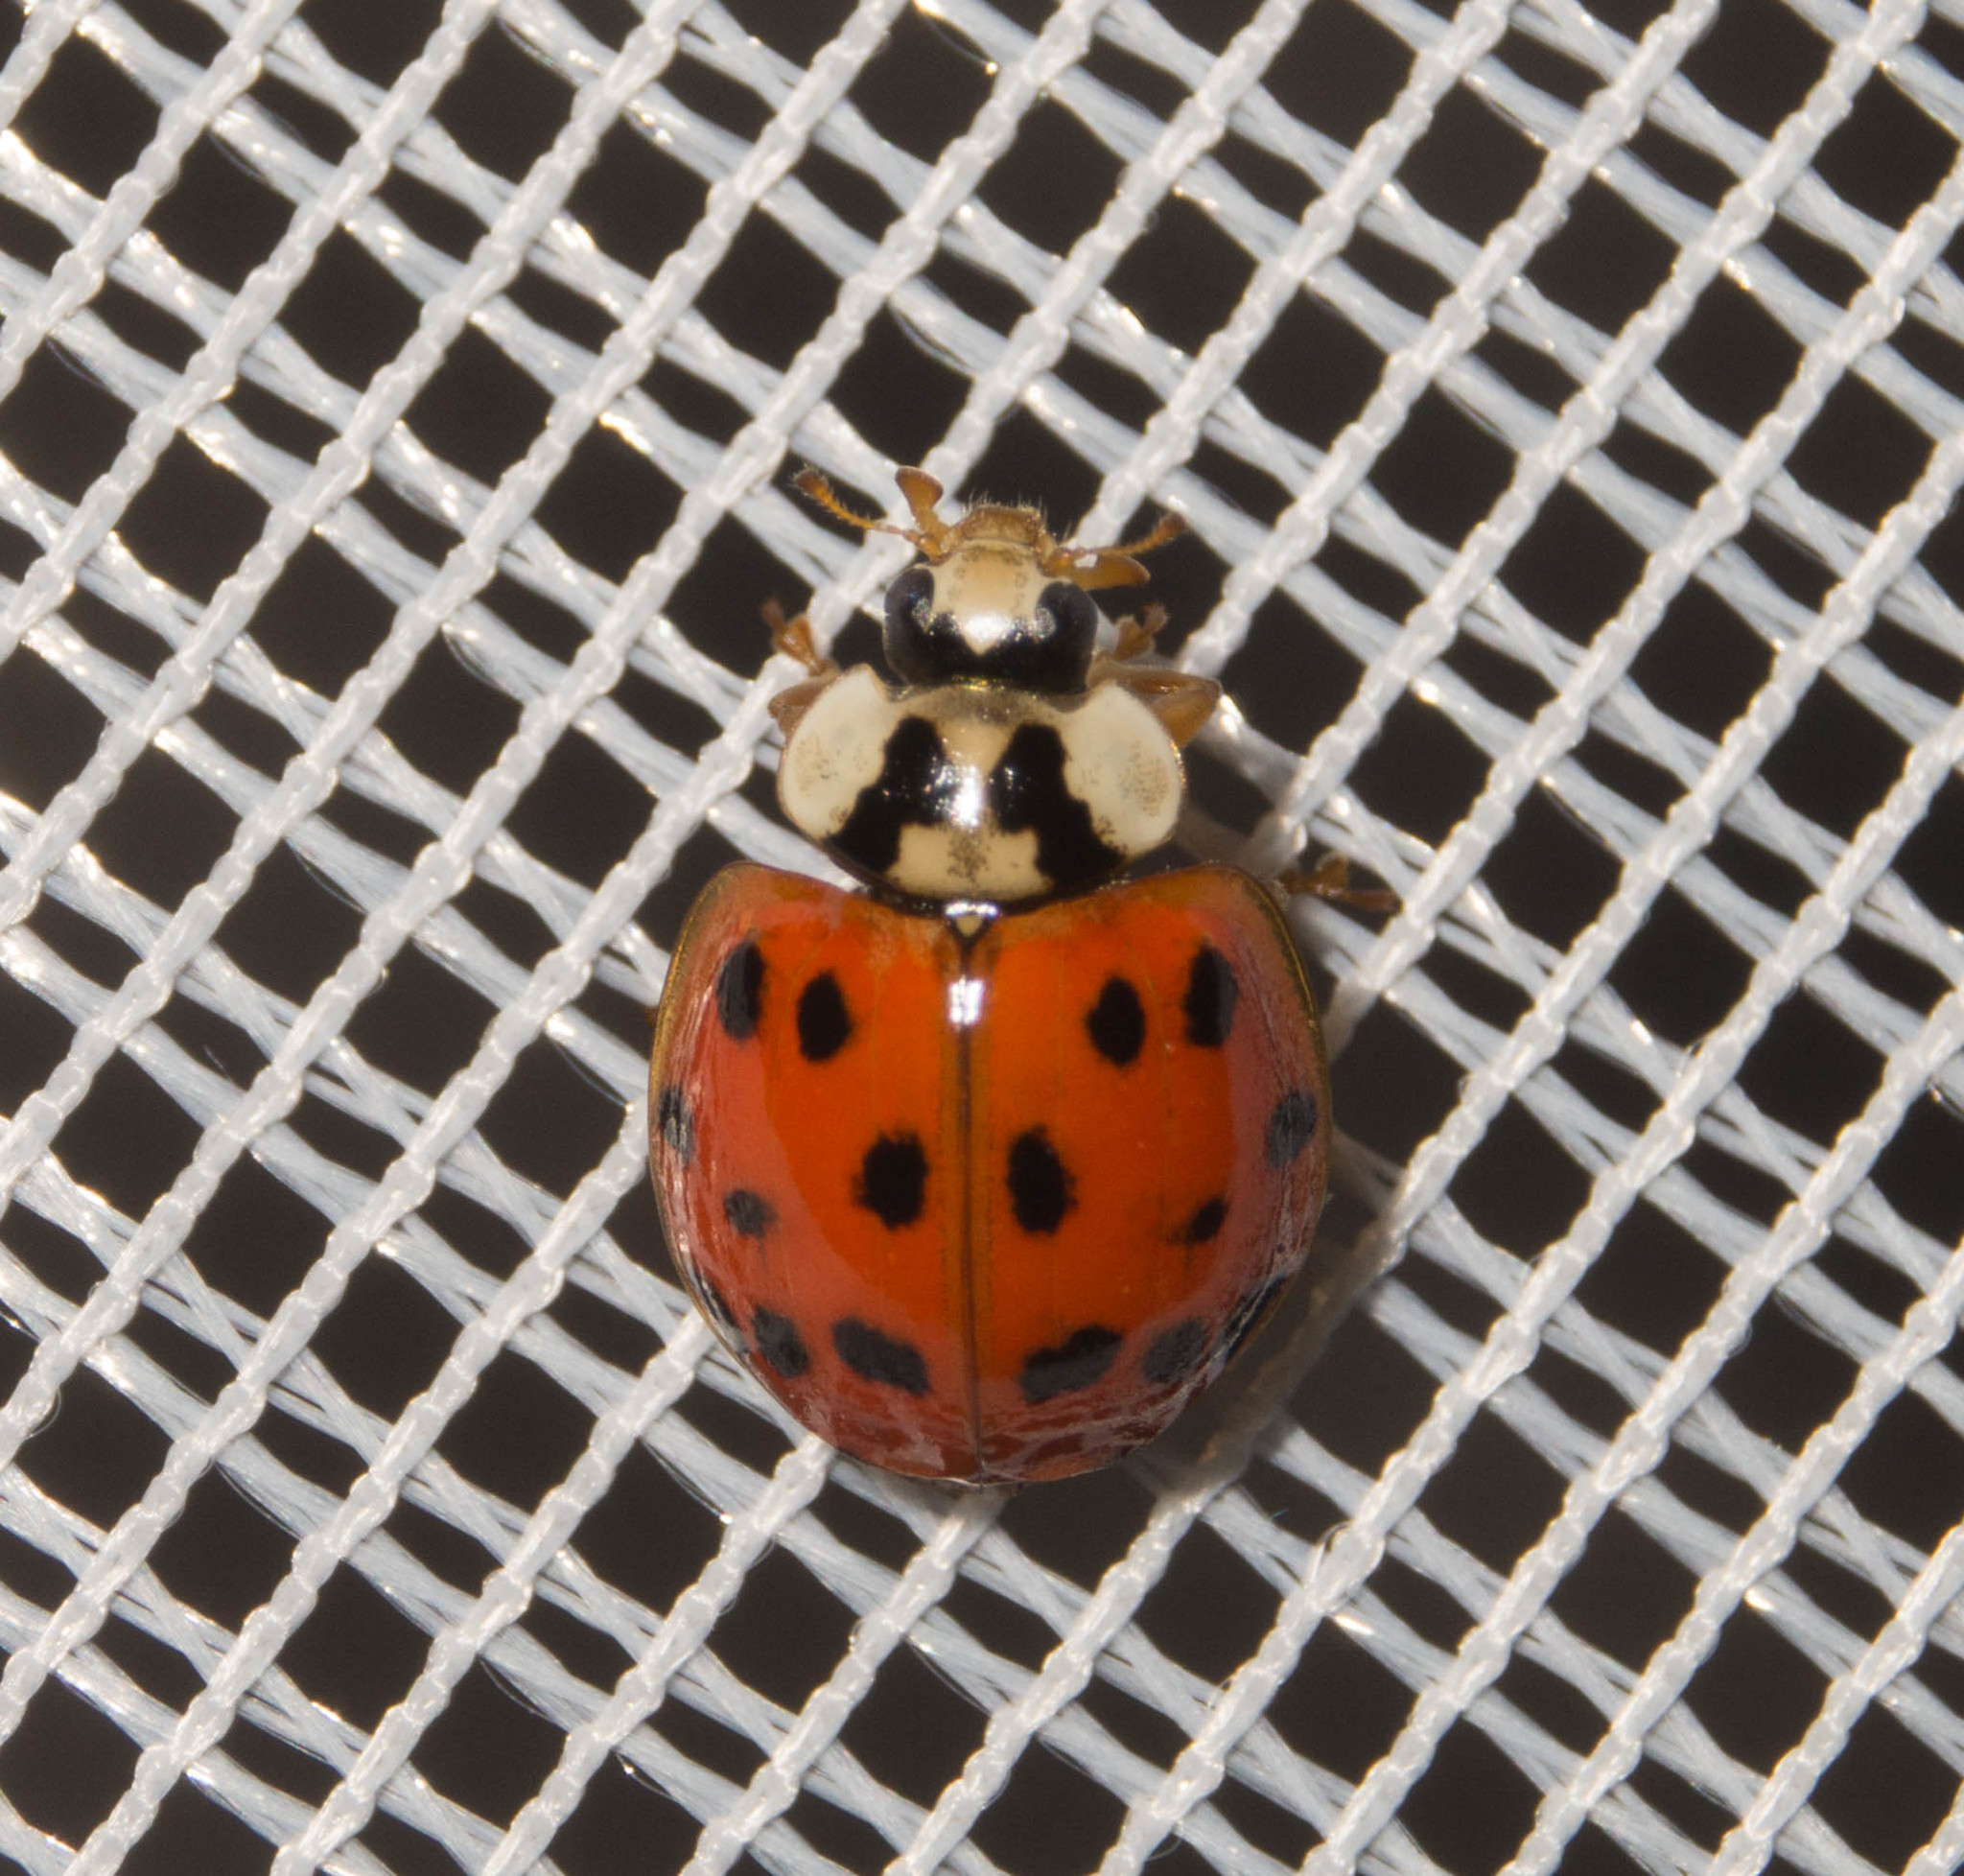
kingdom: Animalia
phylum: Arthropoda
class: Insecta
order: Coleoptera
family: Coccinellidae
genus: Harmonia
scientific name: Harmonia axyridis
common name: Harlequin ladybird
